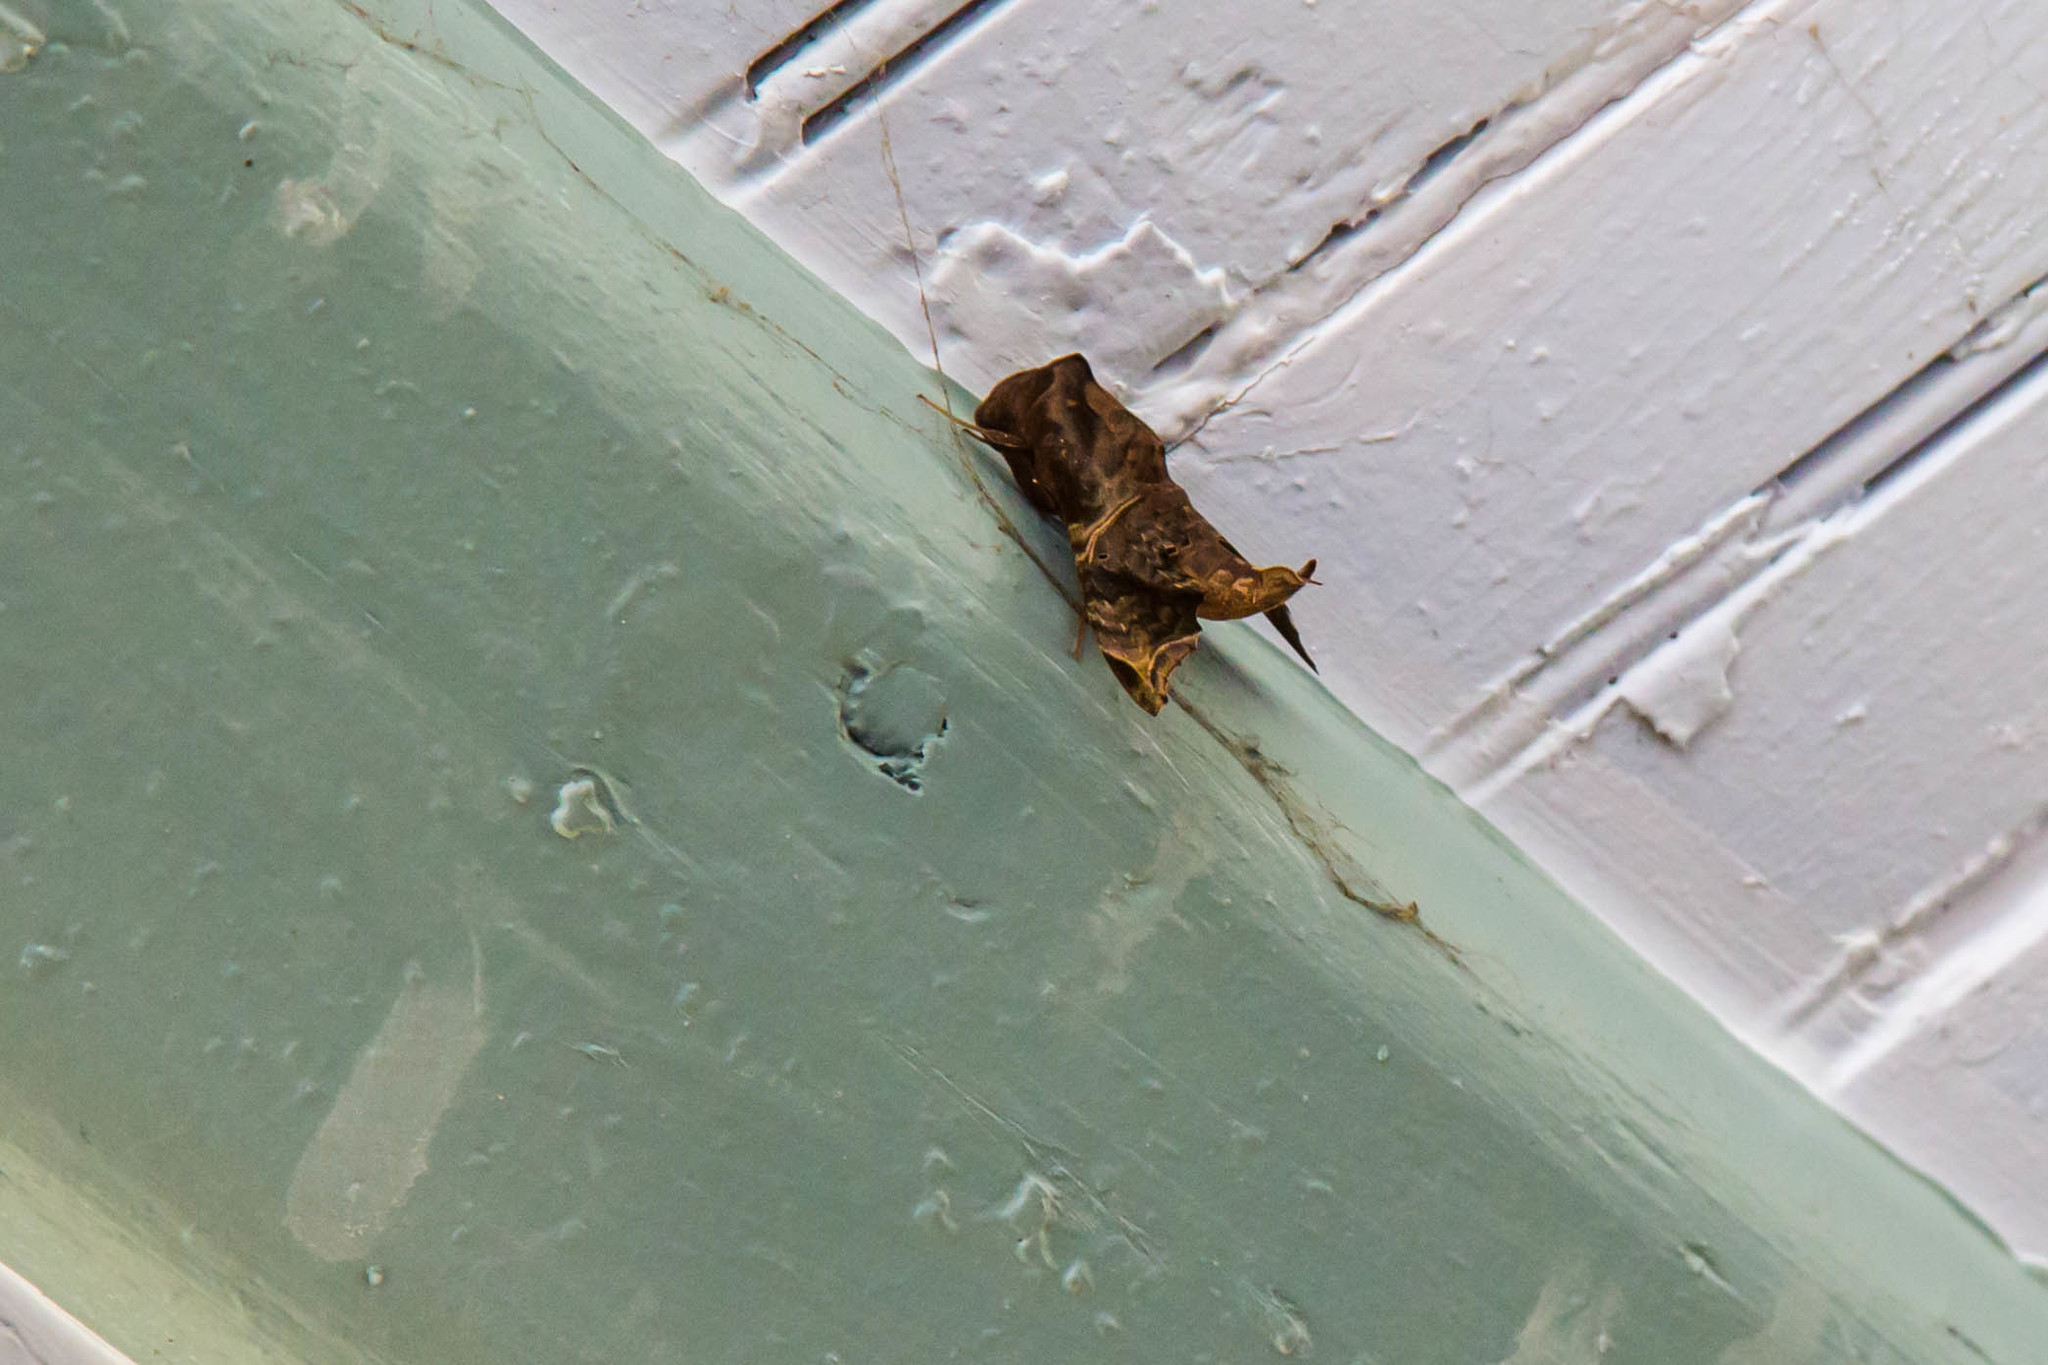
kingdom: Animalia
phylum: Arthropoda
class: Insecta
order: Lepidoptera
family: Sphingidae
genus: Enyo
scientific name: Enyo lugubris
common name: Mournful sphinx
